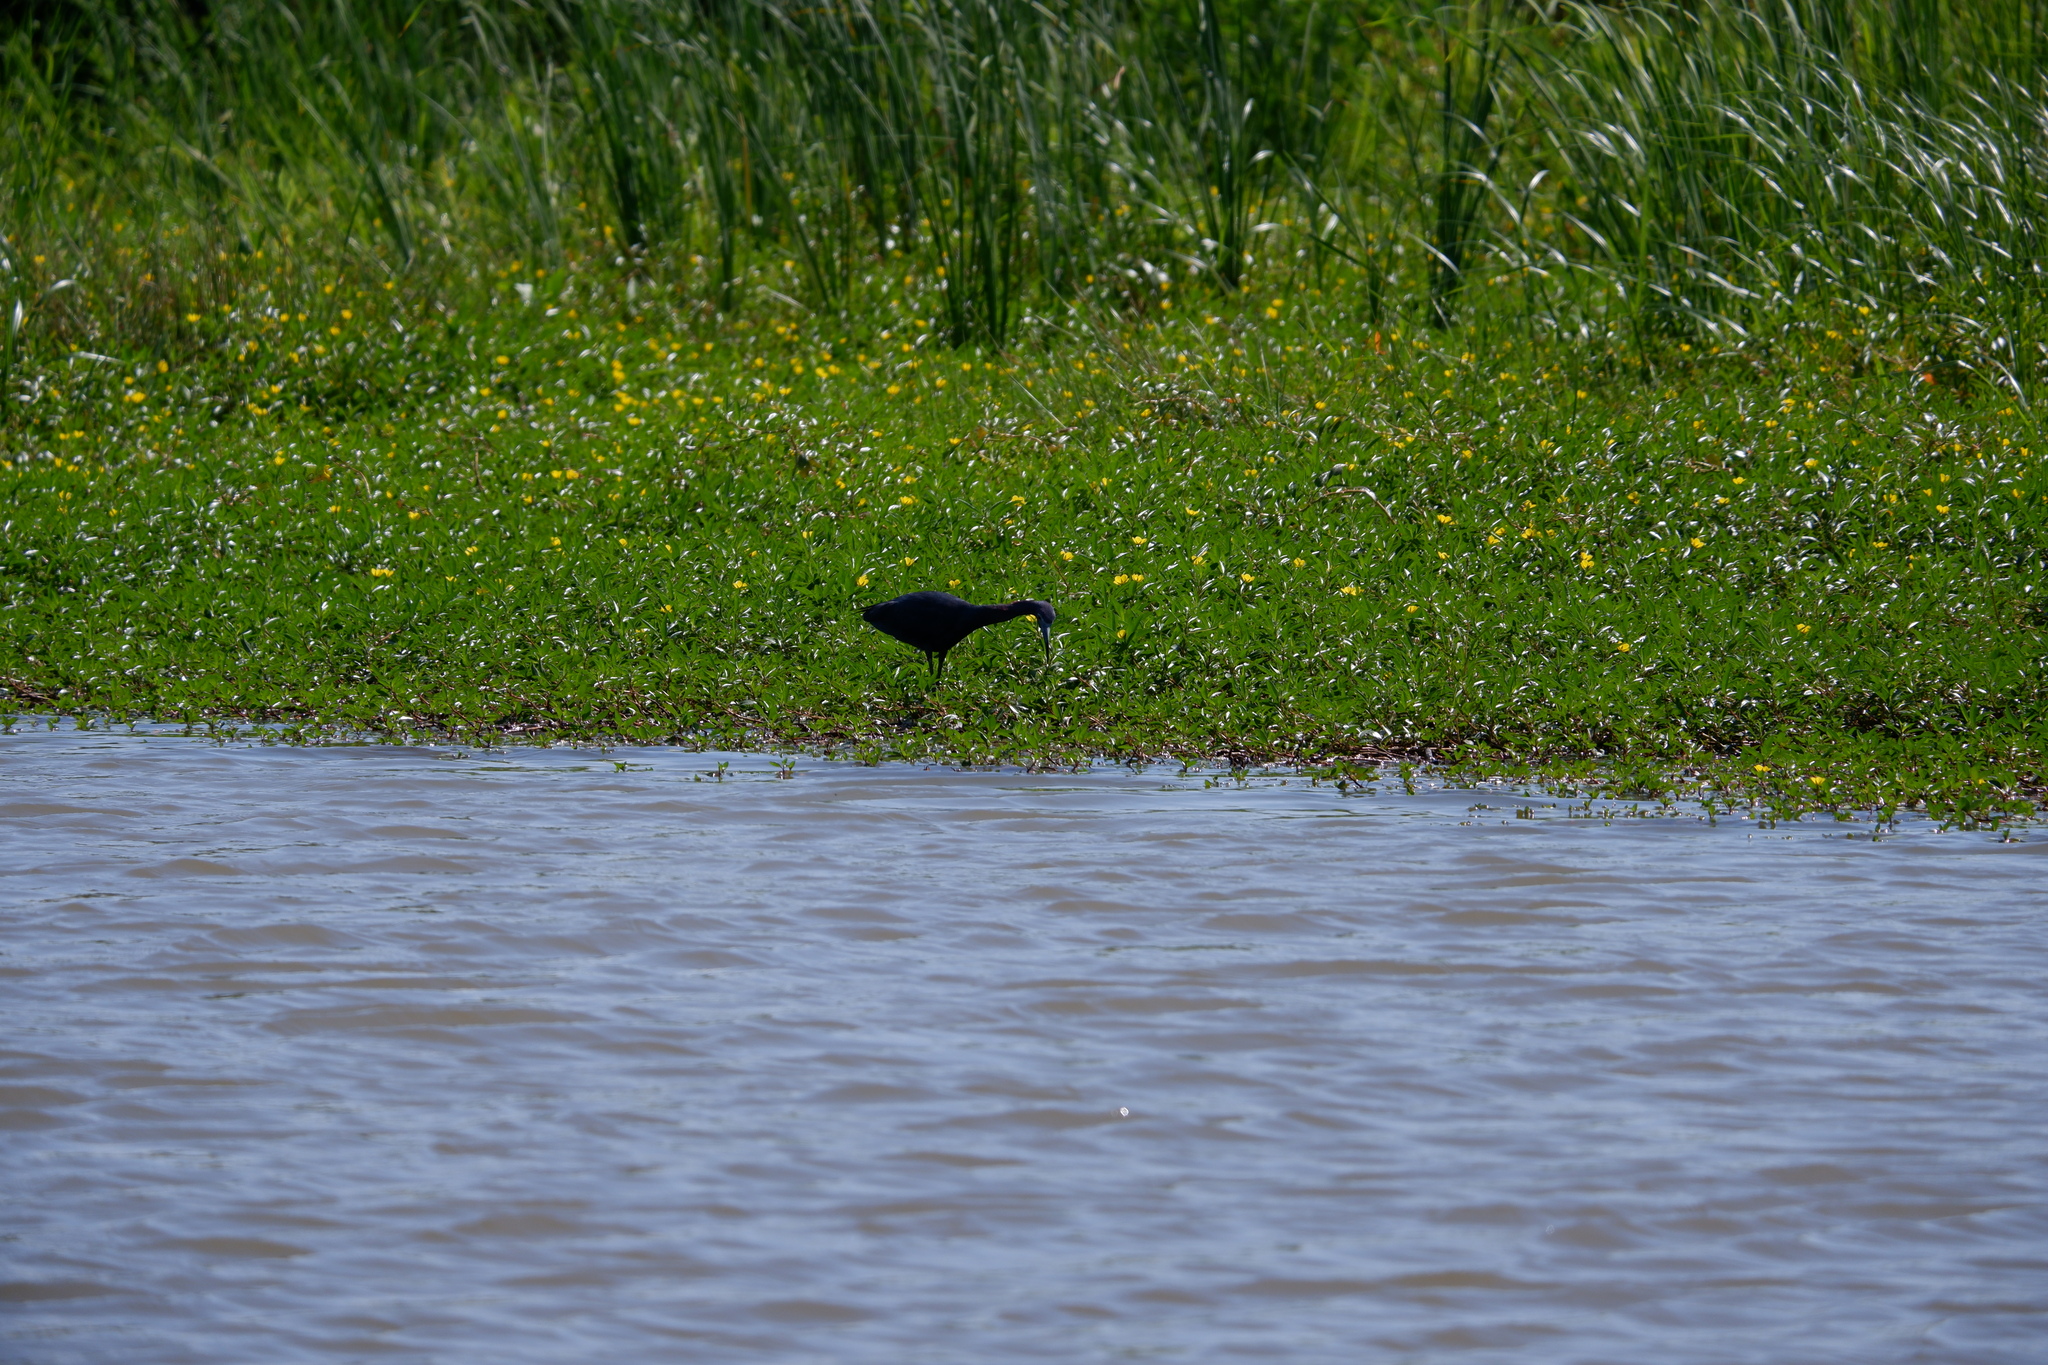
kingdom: Animalia
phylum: Chordata
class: Aves
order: Pelecaniformes
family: Ardeidae
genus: Egretta
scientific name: Egretta caerulea
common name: Little blue heron
